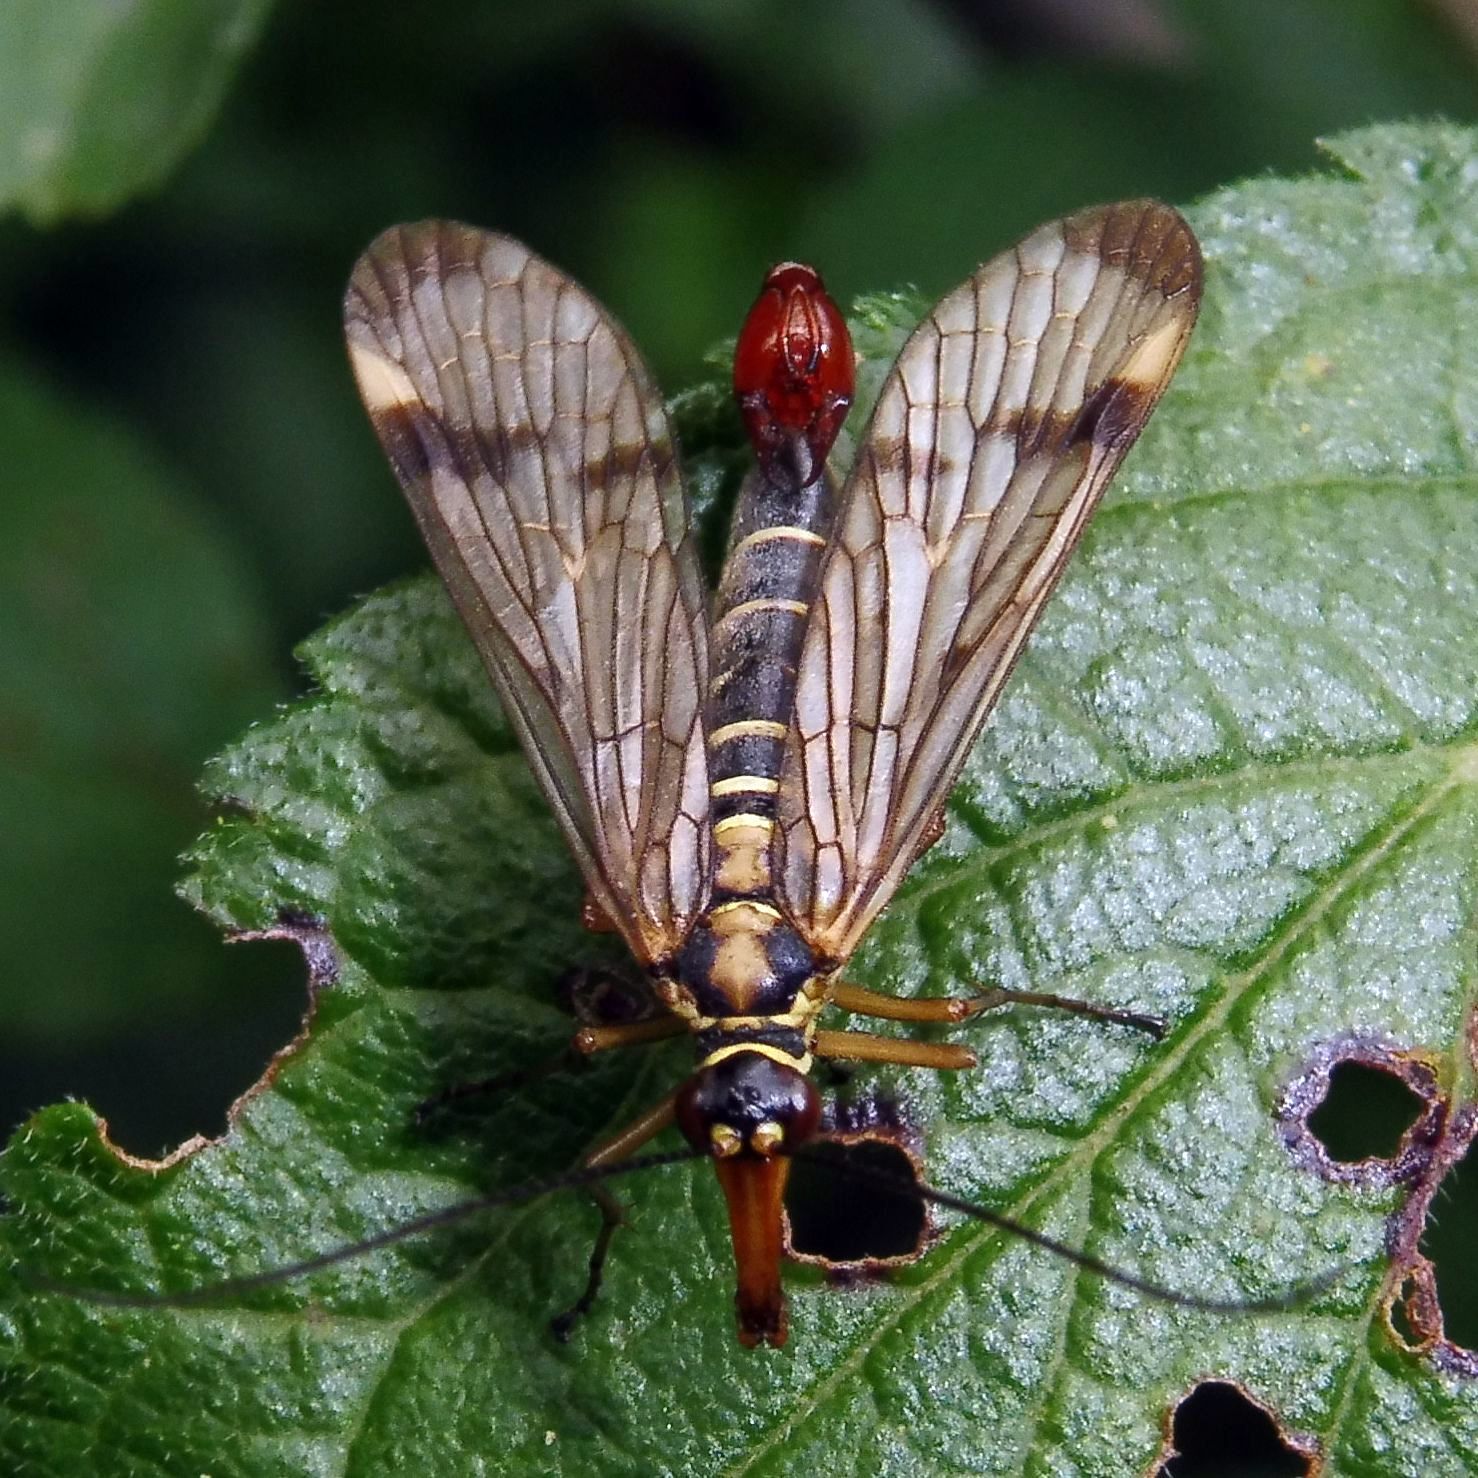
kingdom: Animalia
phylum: Arthropoda
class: Insecta
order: Mecoptera
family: Panorpidae
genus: Panorpa
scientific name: Panorpa communis
